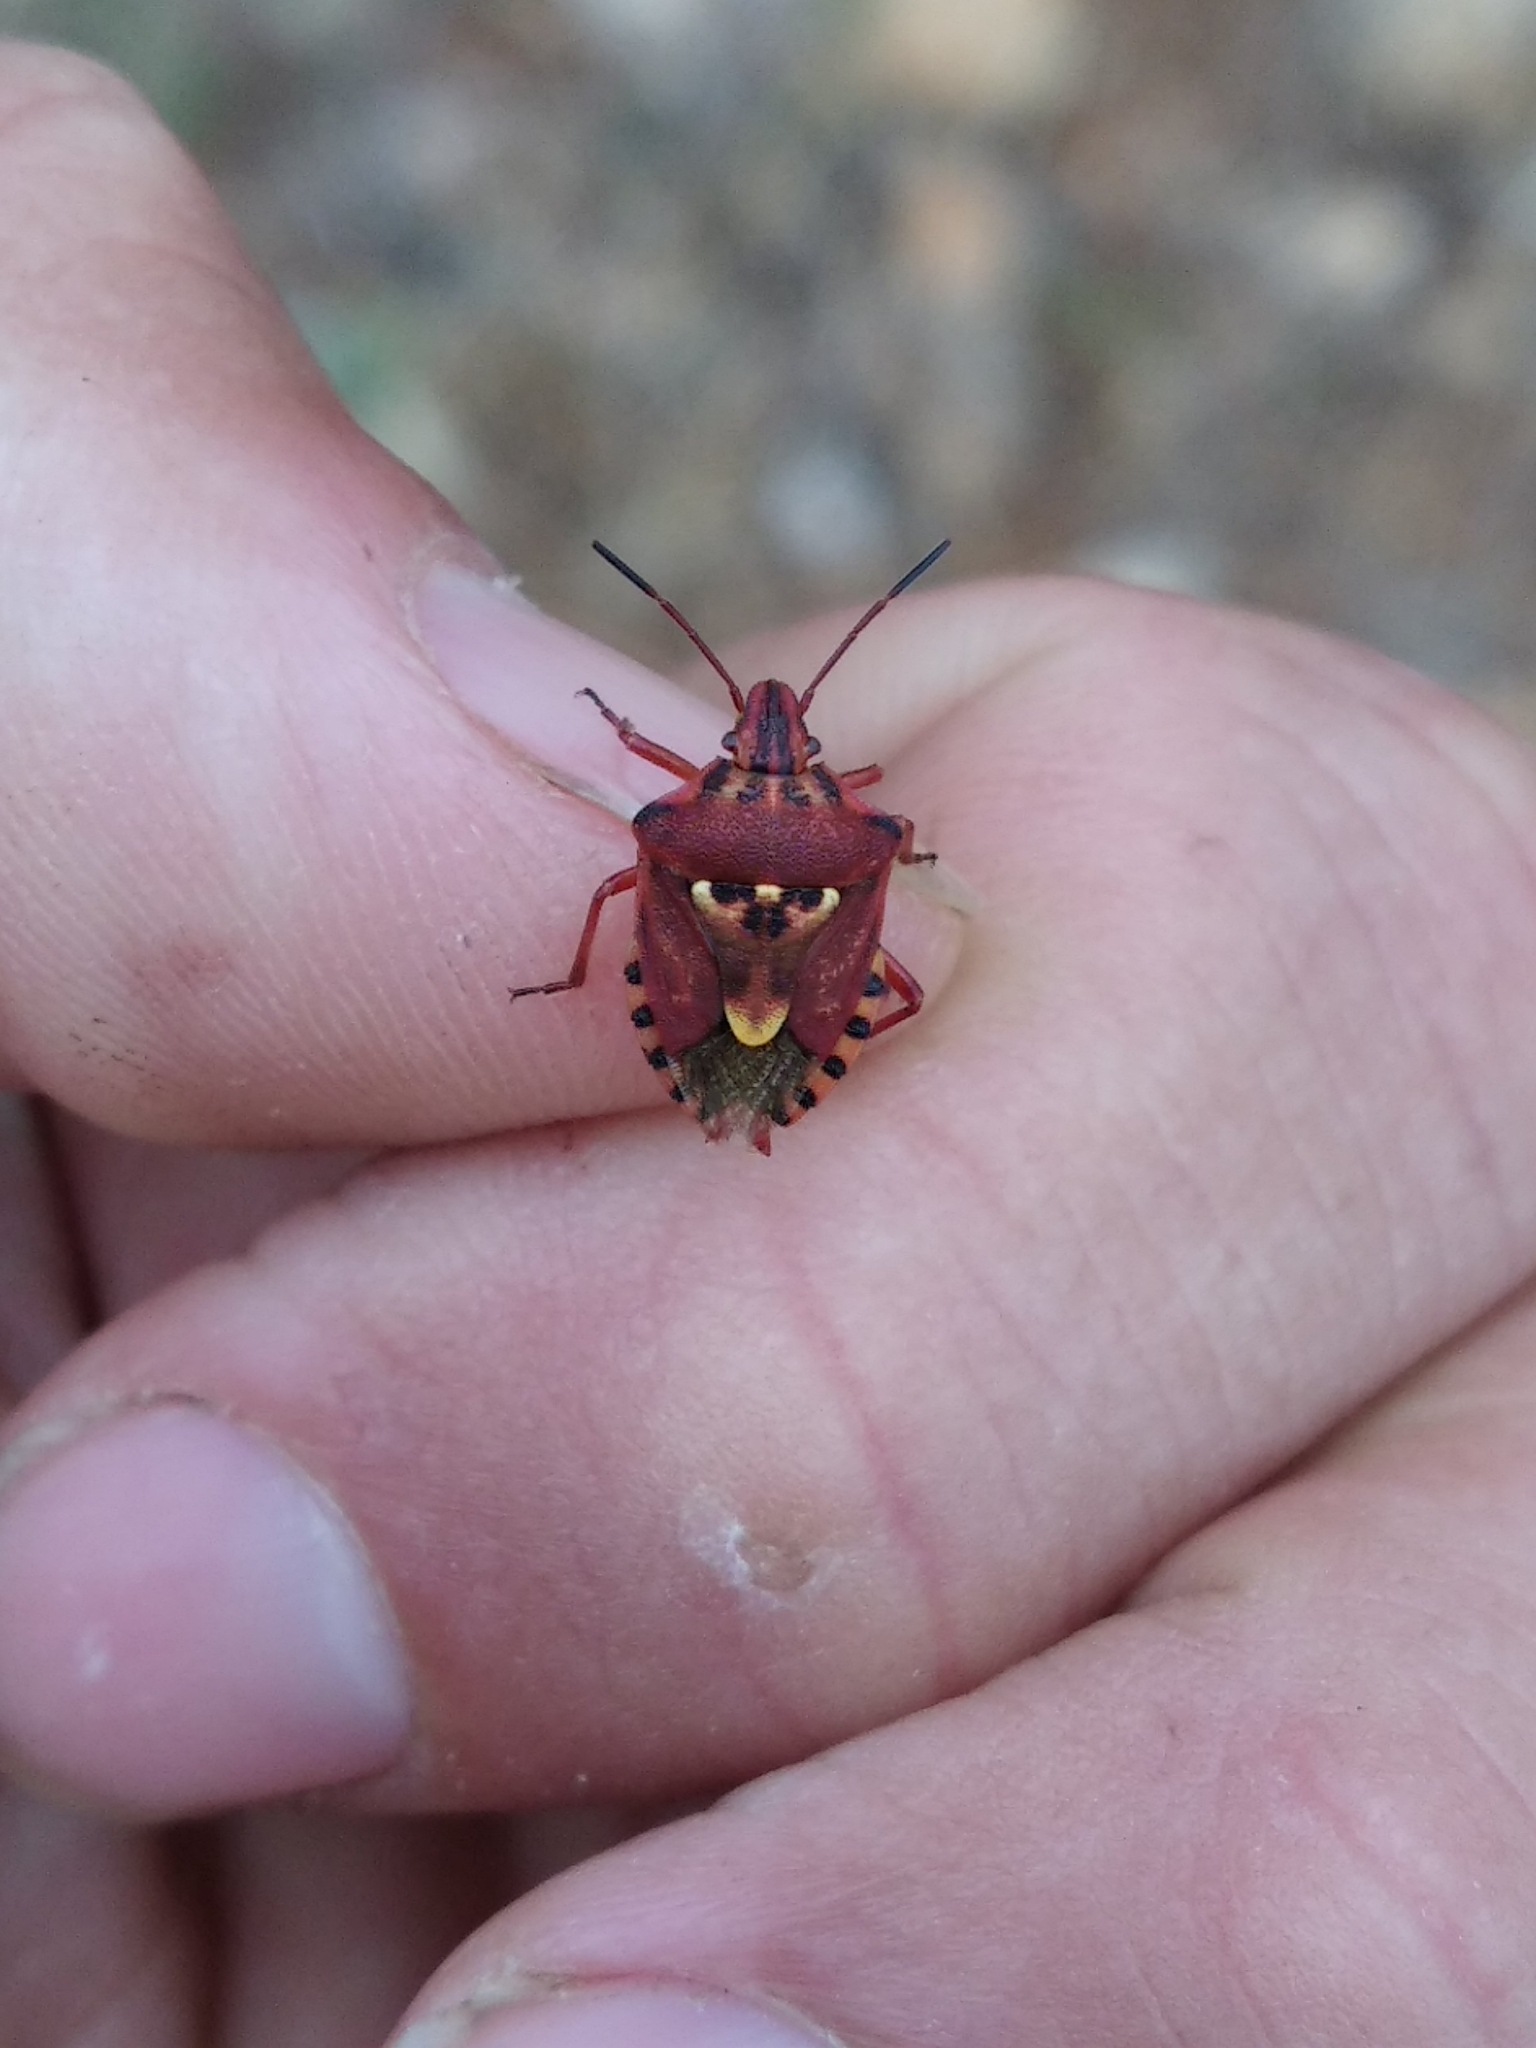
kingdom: Animalia
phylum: Arthropoda
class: Insecta
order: Hemiptera
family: Miridae
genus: Orthops
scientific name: Orthops kalmii
